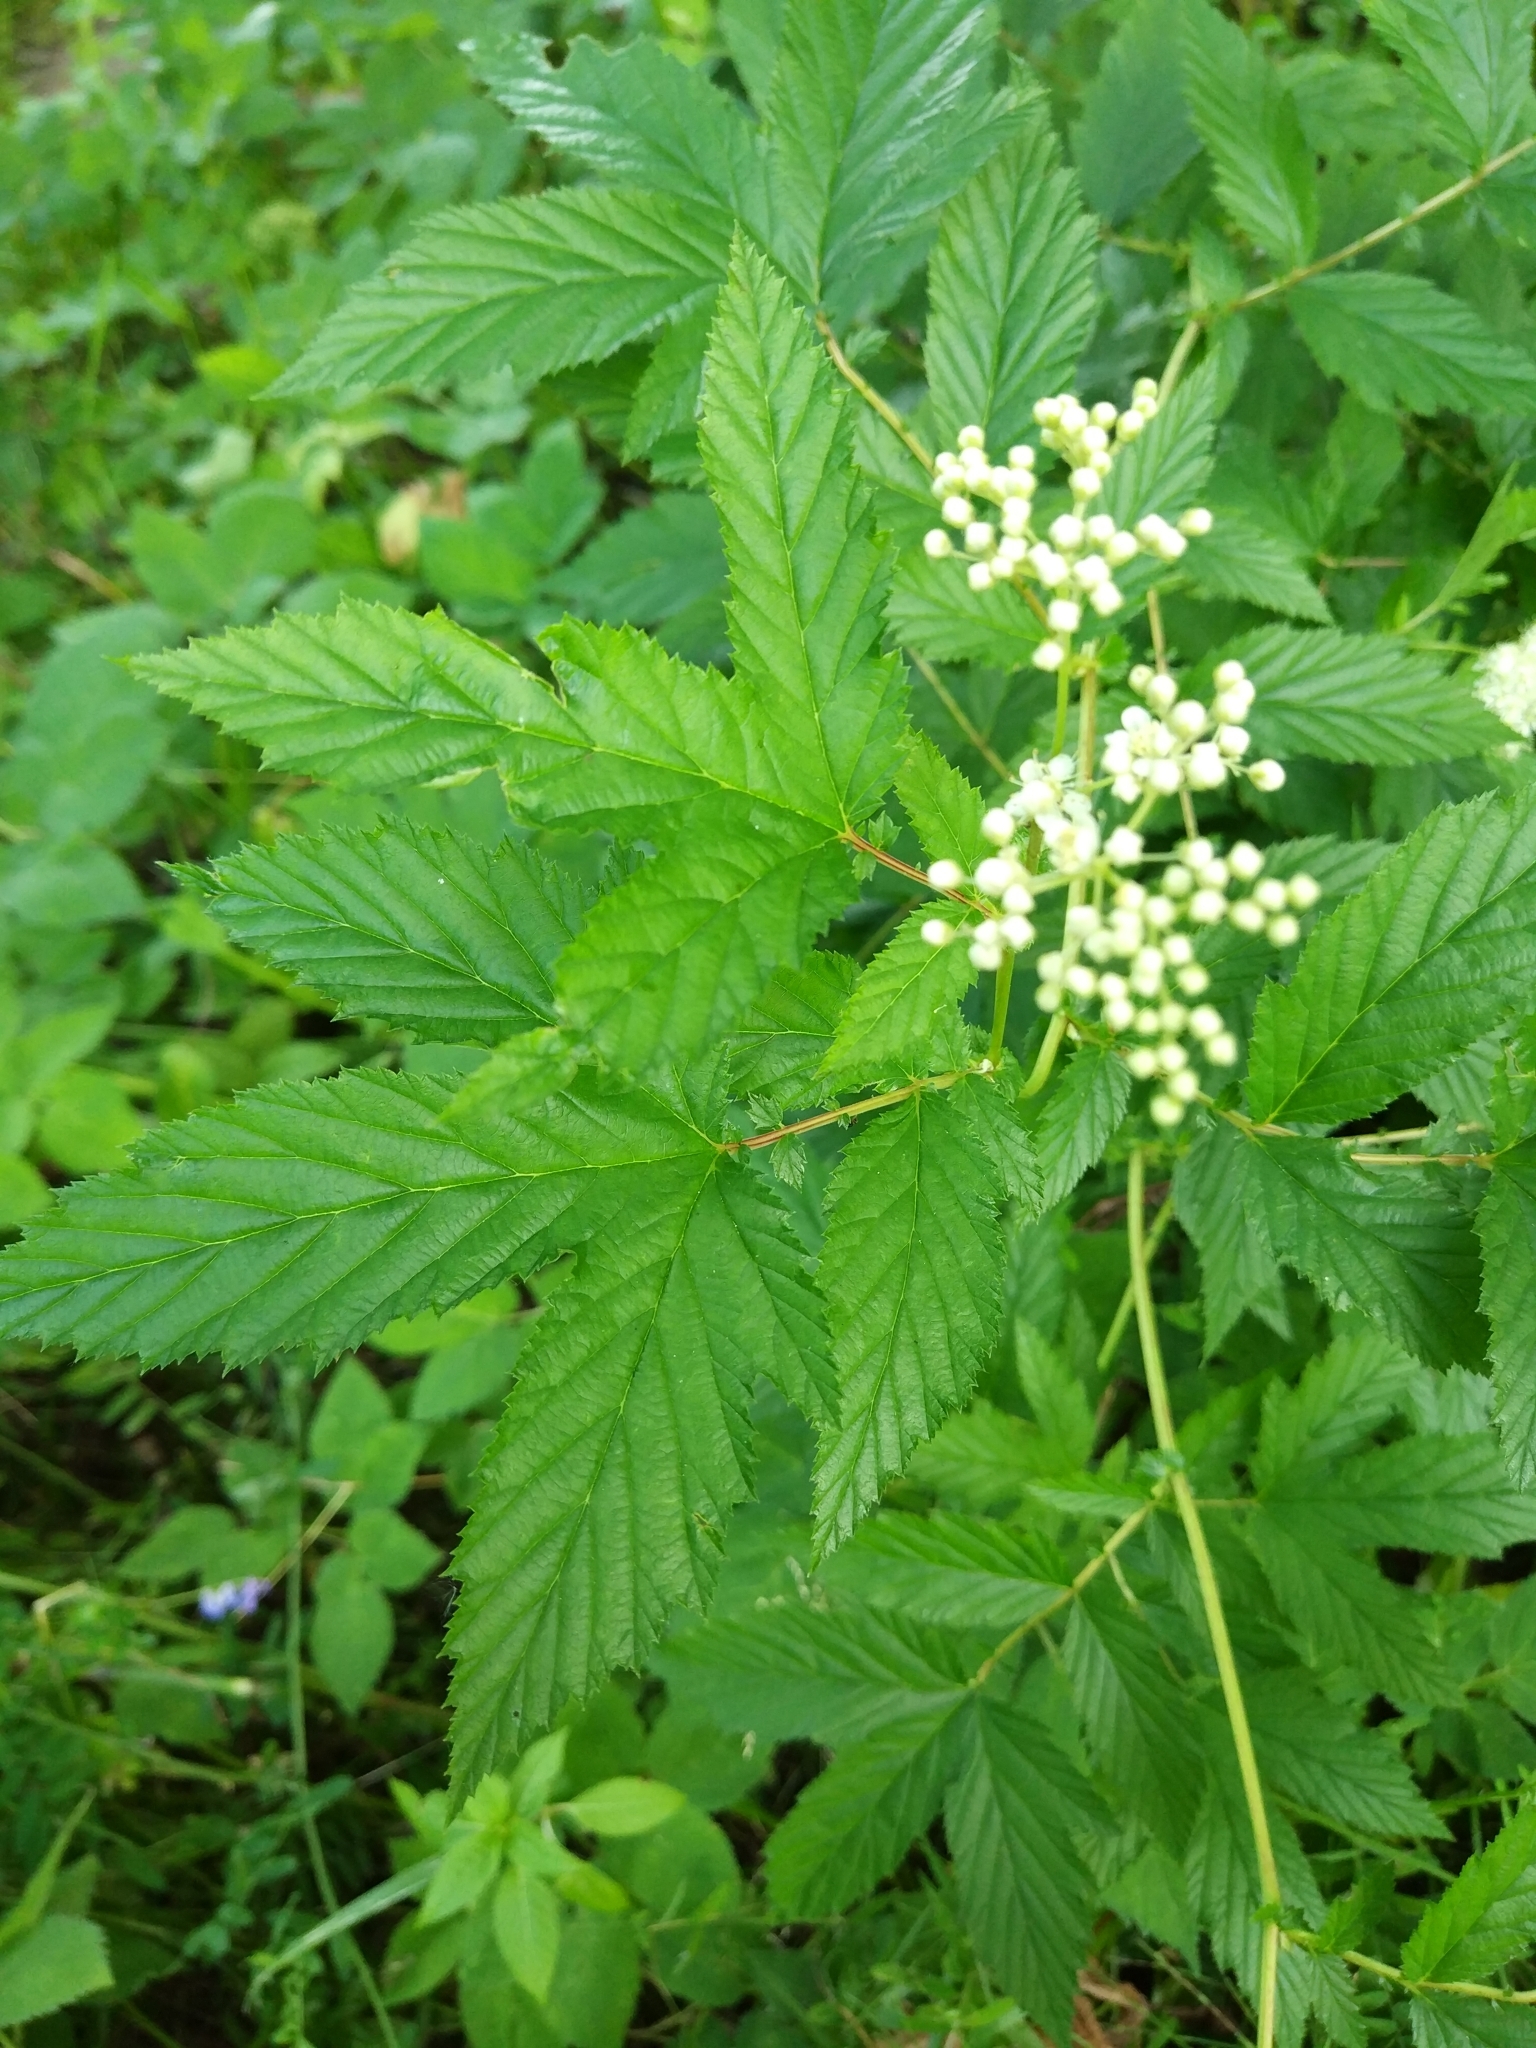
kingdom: Plantae
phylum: Tracheophyta
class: Magnoliopsida
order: Rosales
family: Rosaceae
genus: Filipendula
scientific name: Filipendula ulmaria
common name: Meadowsweet
